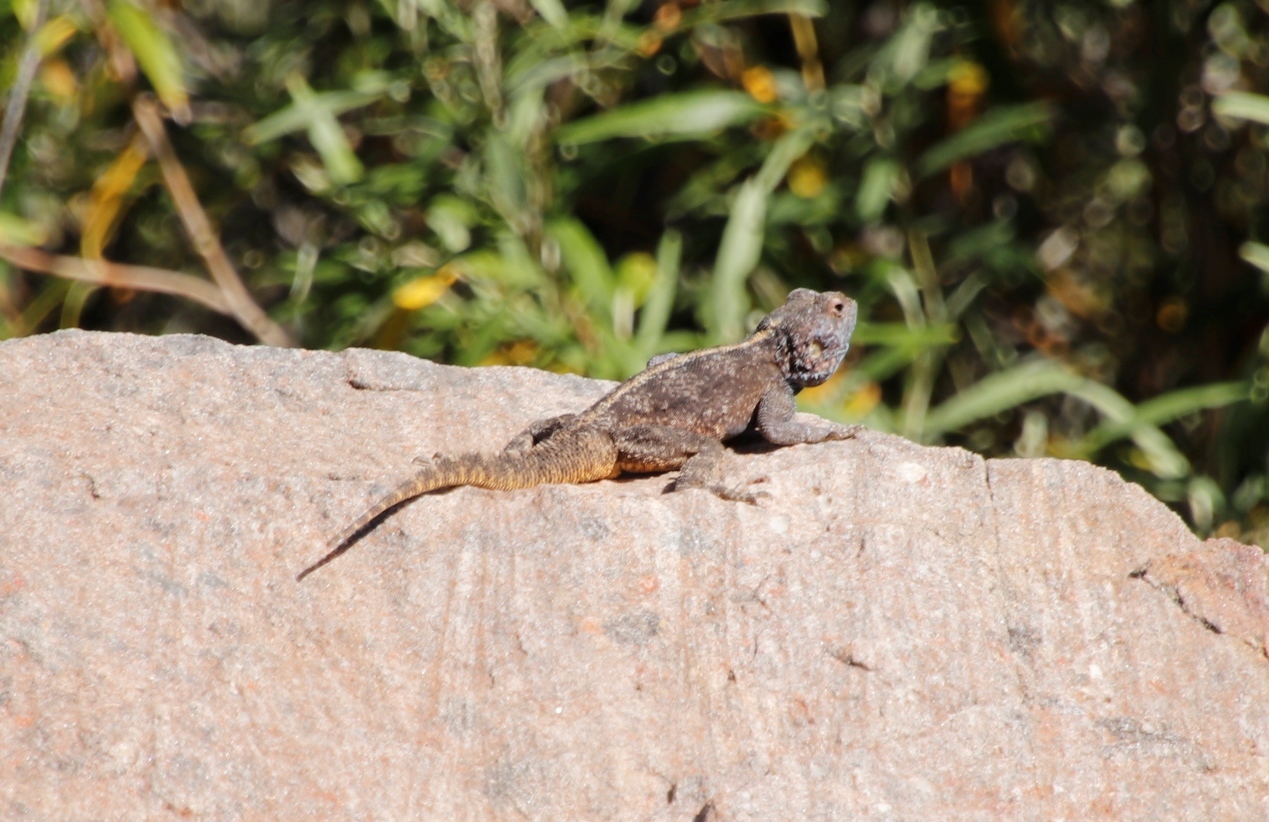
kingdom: Animalia
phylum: Chordata
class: Squamata
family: Agamidae
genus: Agama
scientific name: Agama atra
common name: Southern african rock agama
